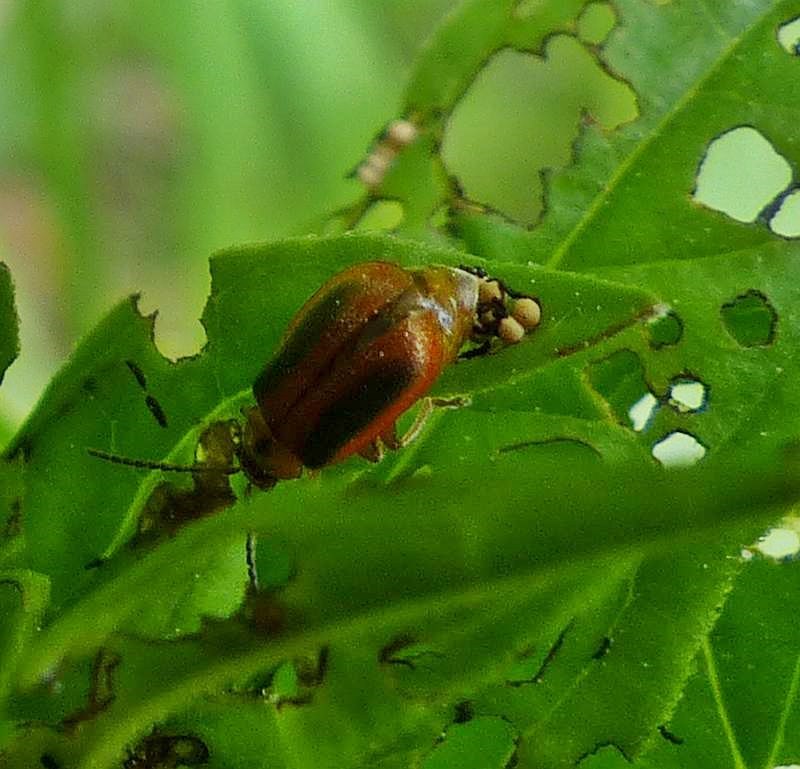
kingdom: Animalia
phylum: Arthropoda
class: Insecta
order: Coleoptera
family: Chrysomelidae
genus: Neogalerucella
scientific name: Neogalerucella calmariensis
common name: Black-margined loosestrife beetle
